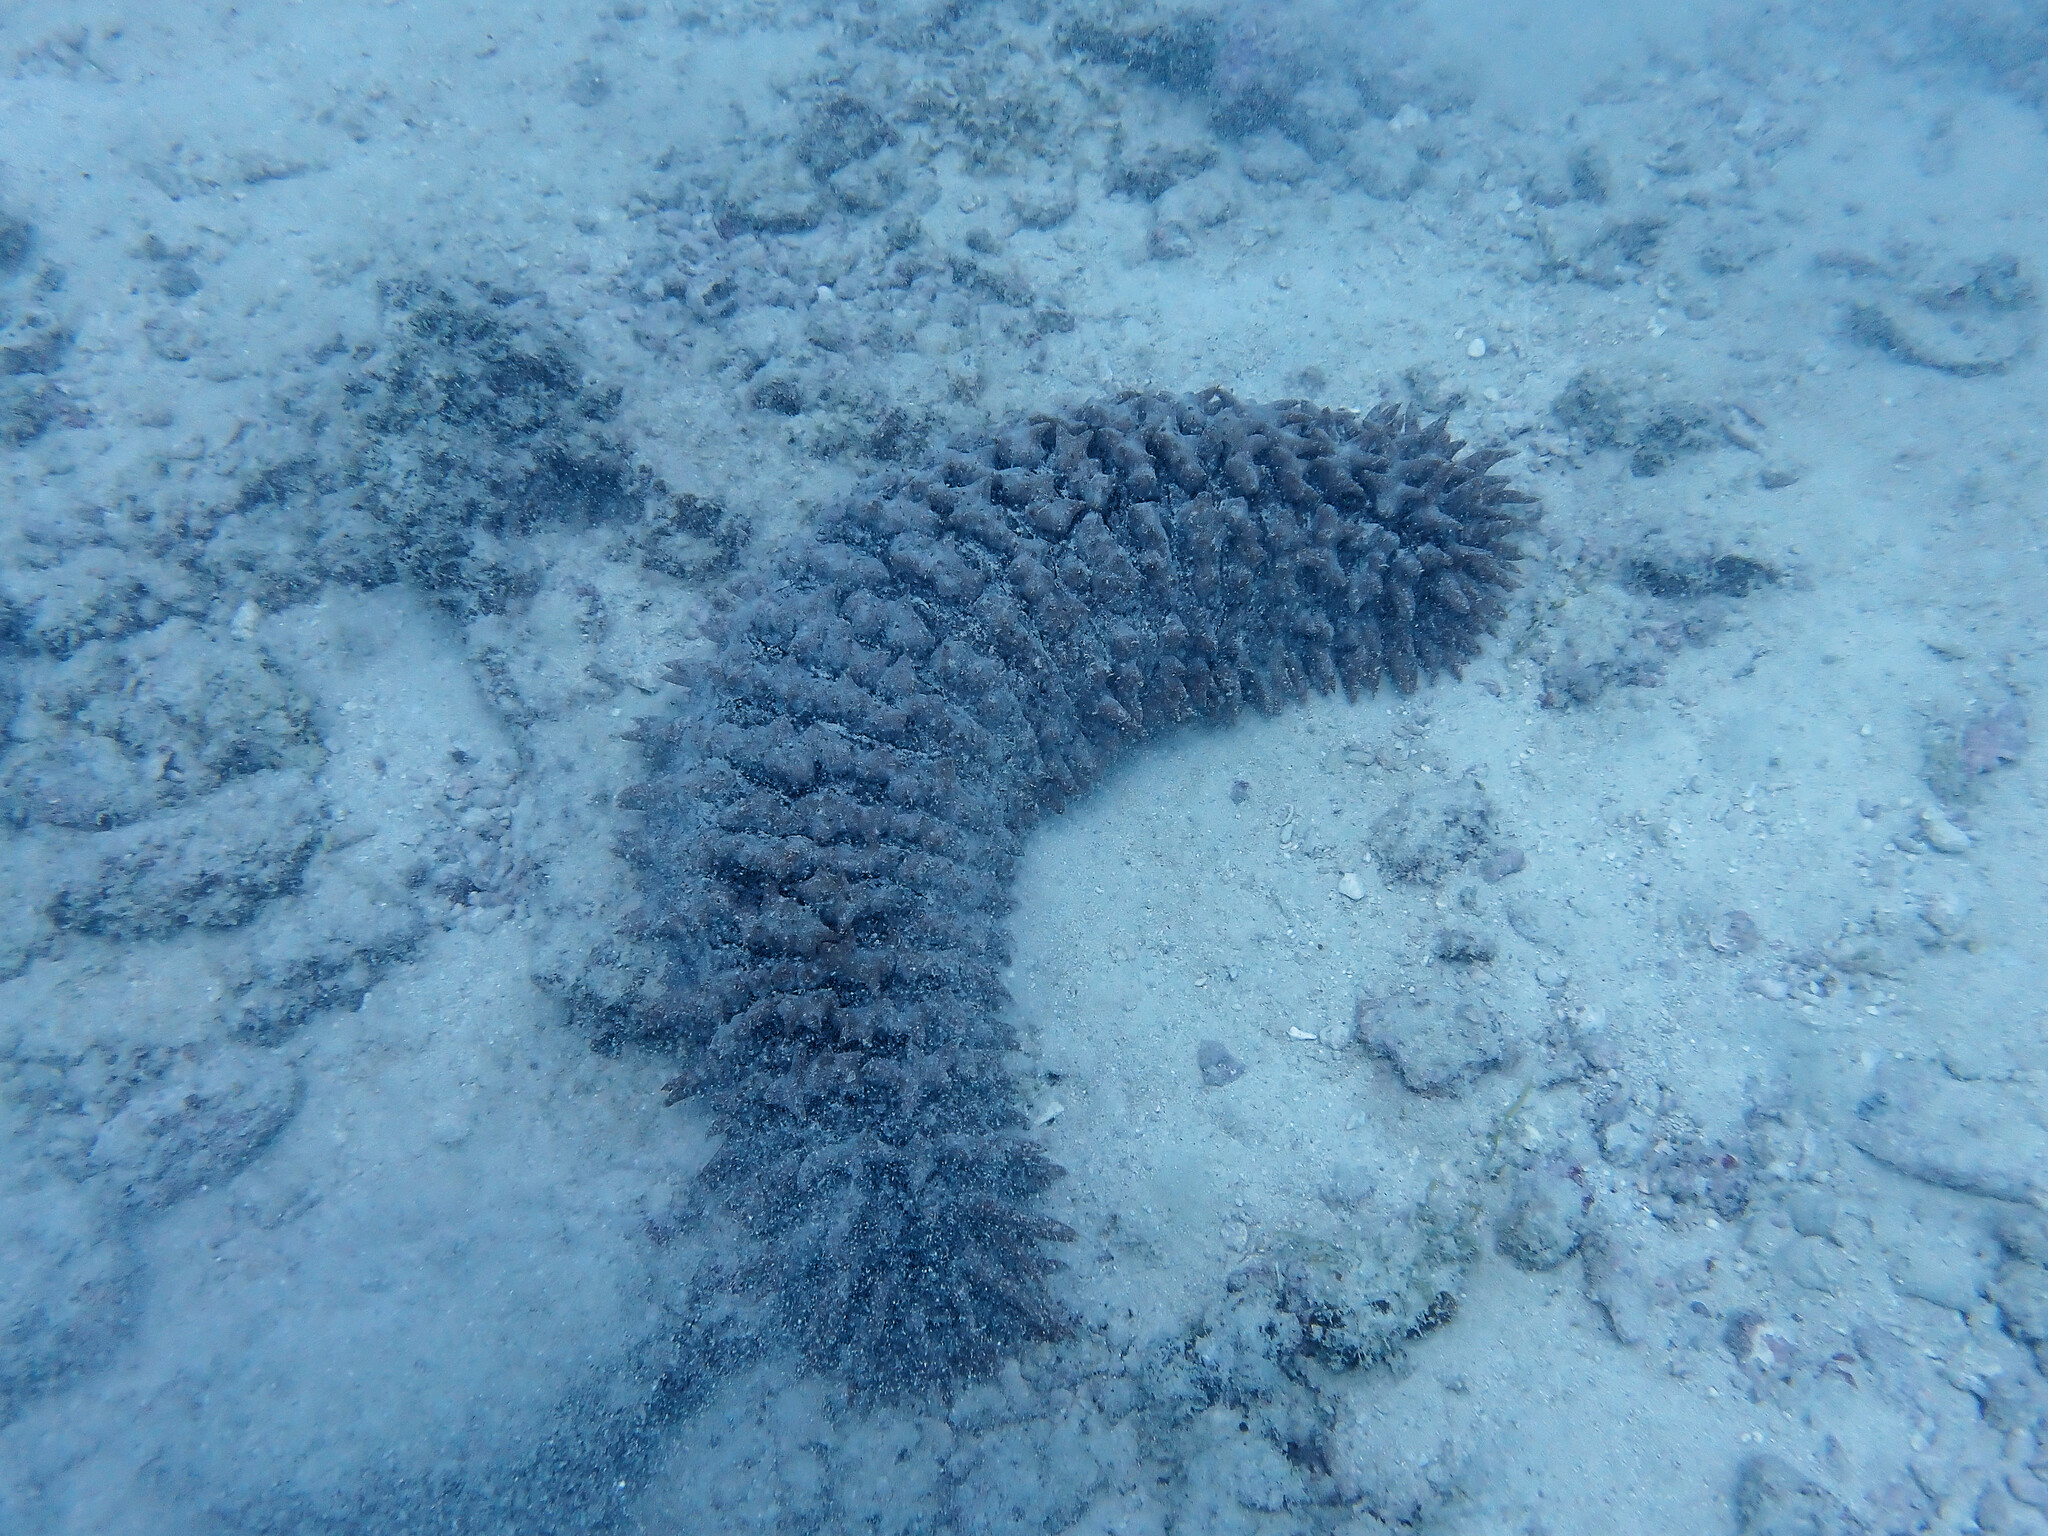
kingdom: Animalia
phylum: Echinodermata
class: Holothuroidea
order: Synallactida
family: Stichopodidae
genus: Thelenota
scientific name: Thelenota ananas
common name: Prickly redfish
